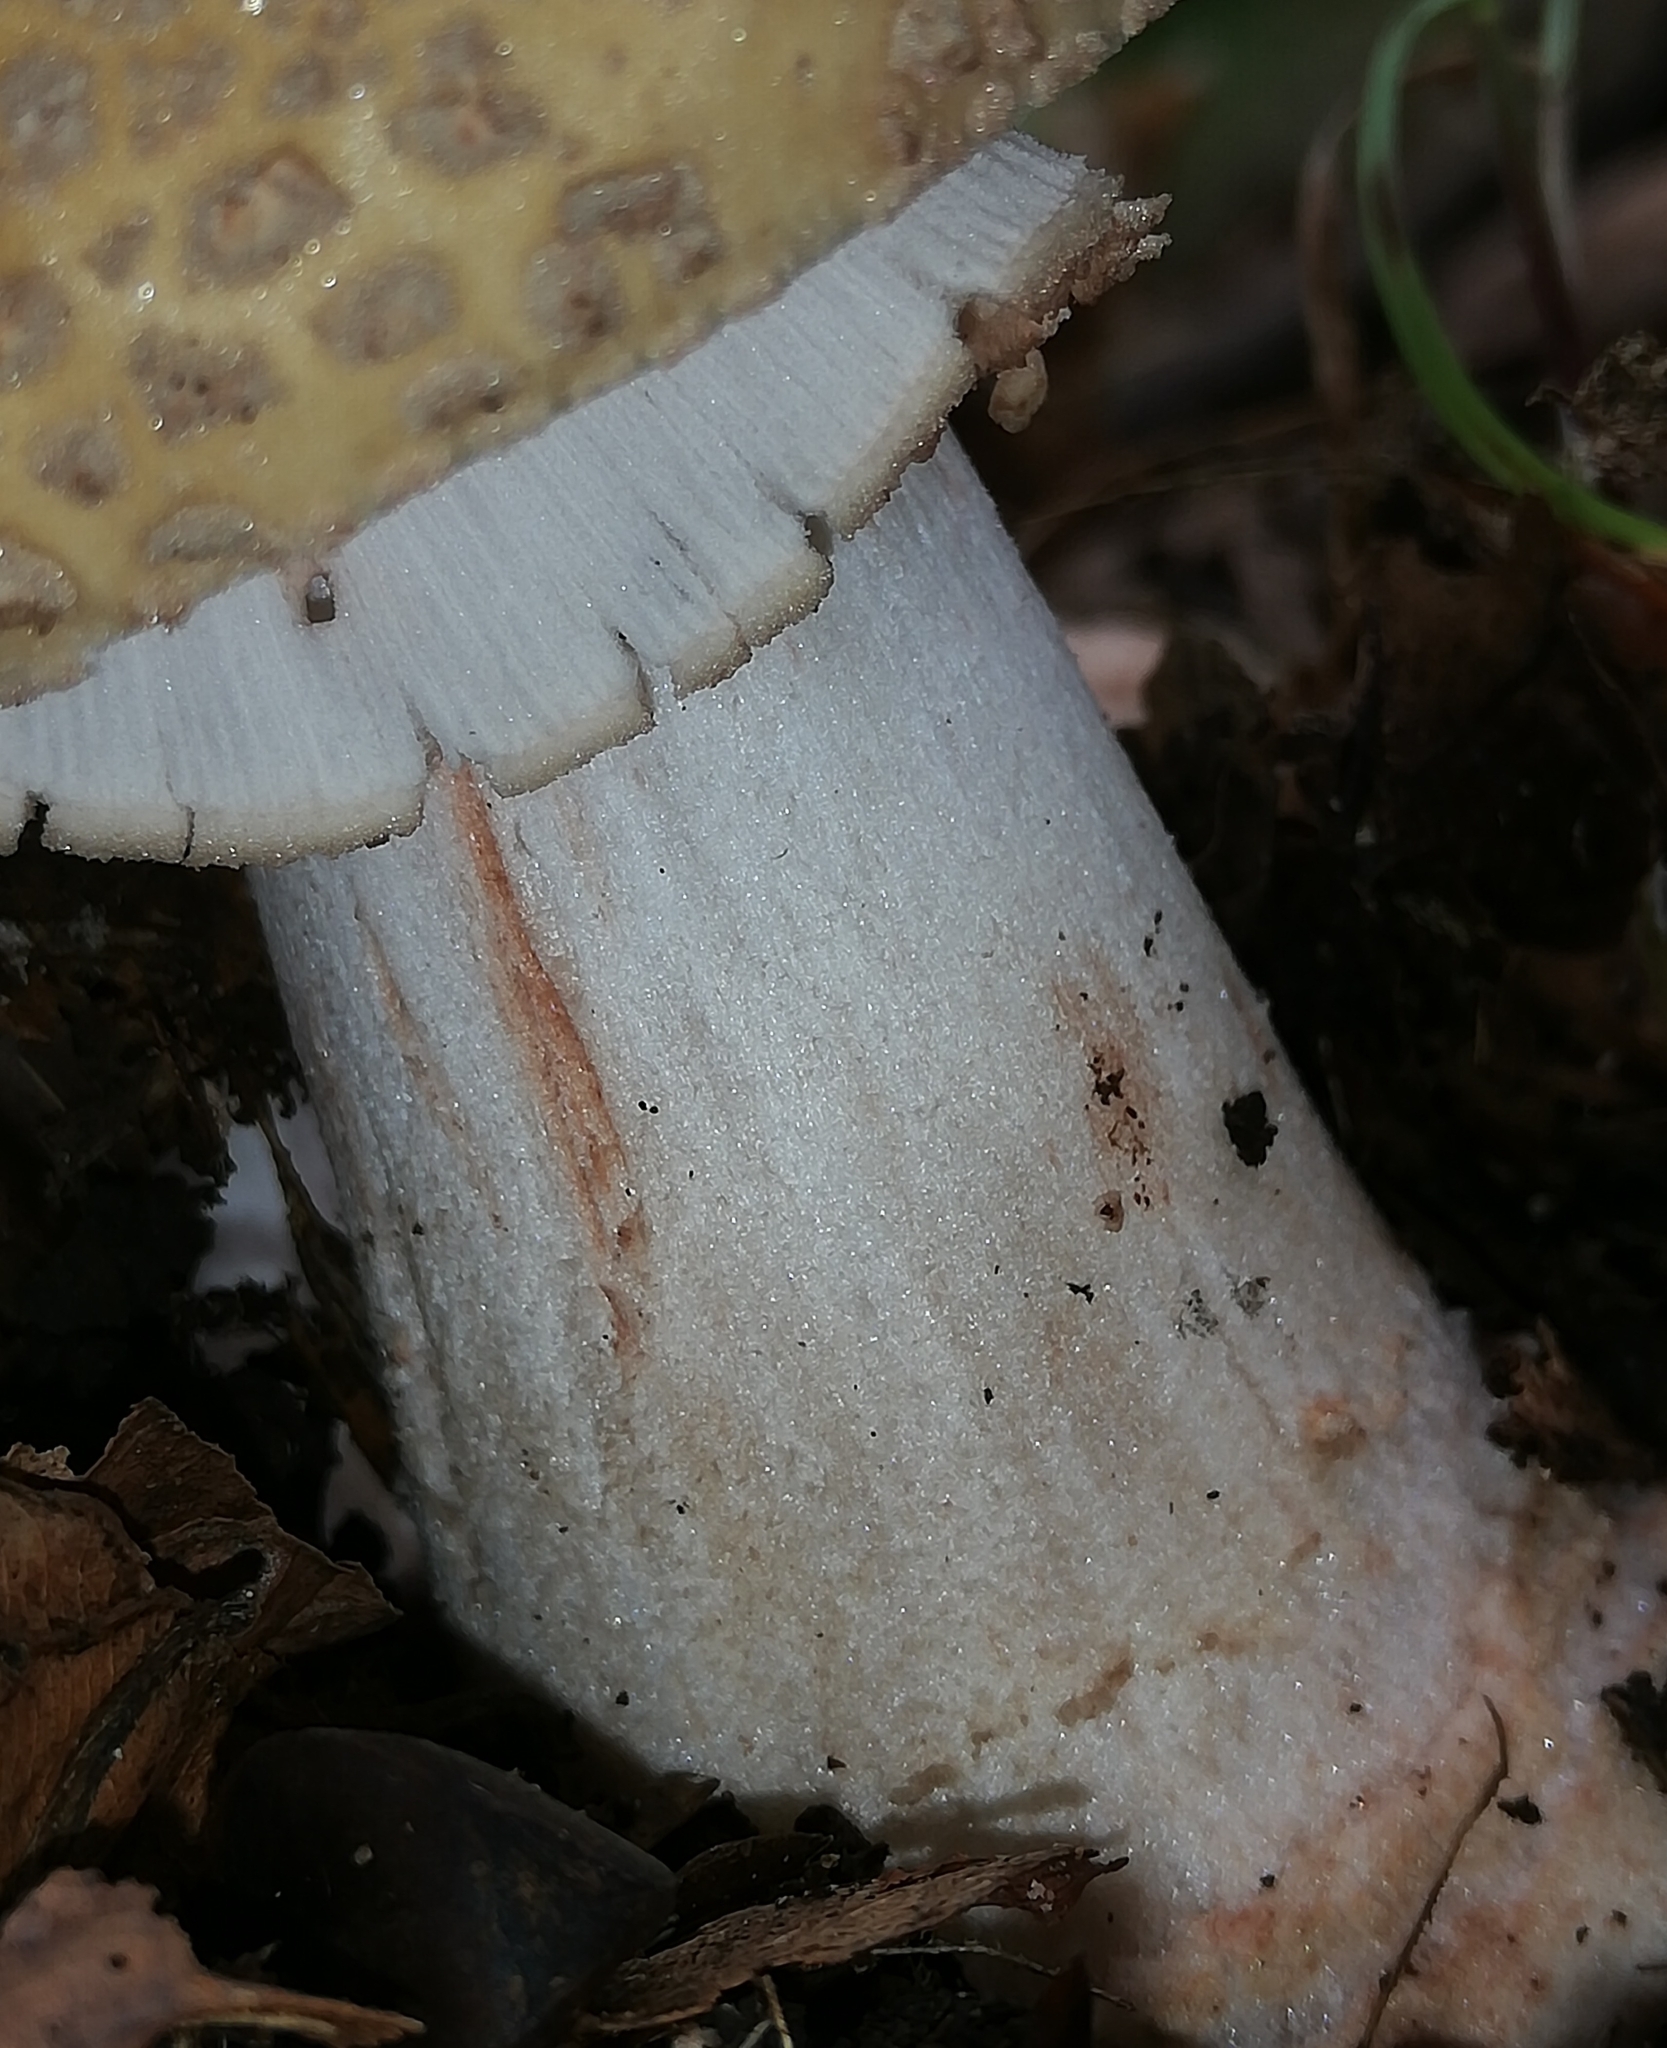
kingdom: Fungi
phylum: Basidiomycota
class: Agaricomycetes
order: Agaricales
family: Amanitaceae
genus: Amanita
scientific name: Amanita rubescens
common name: Blusher
